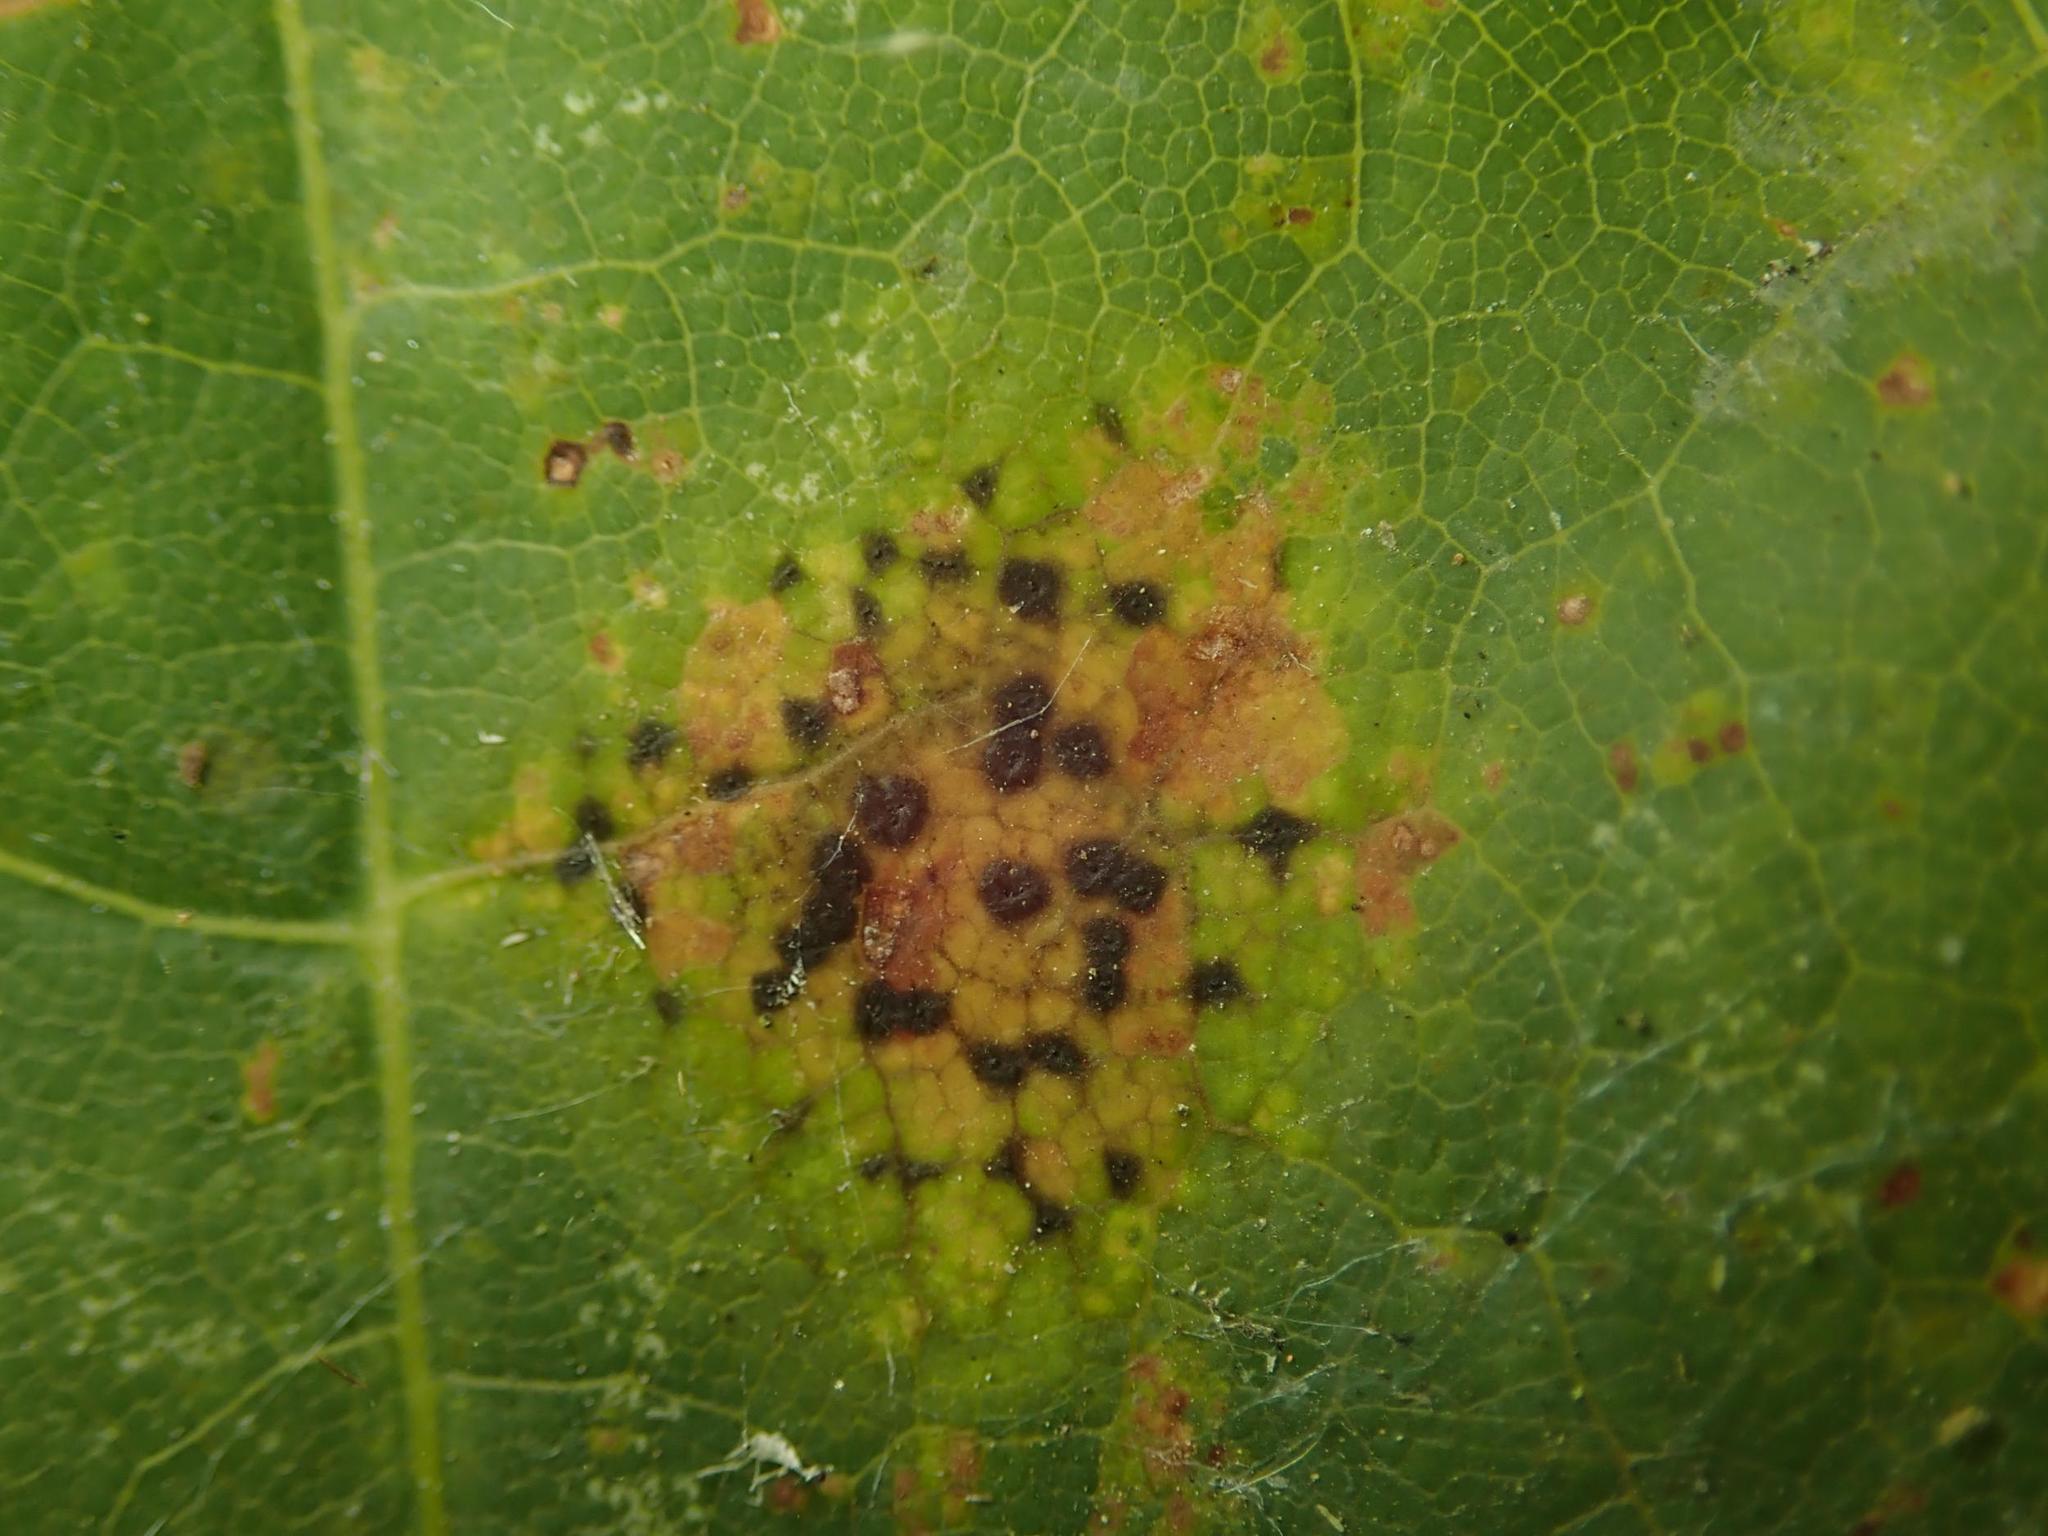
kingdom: Fungi
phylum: Ascomycota
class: Leotiomycetes
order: Rhytismatales
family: Rhytismataceae
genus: Rhytisma
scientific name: Rhytisma punctatum
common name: Speckled tar spot
